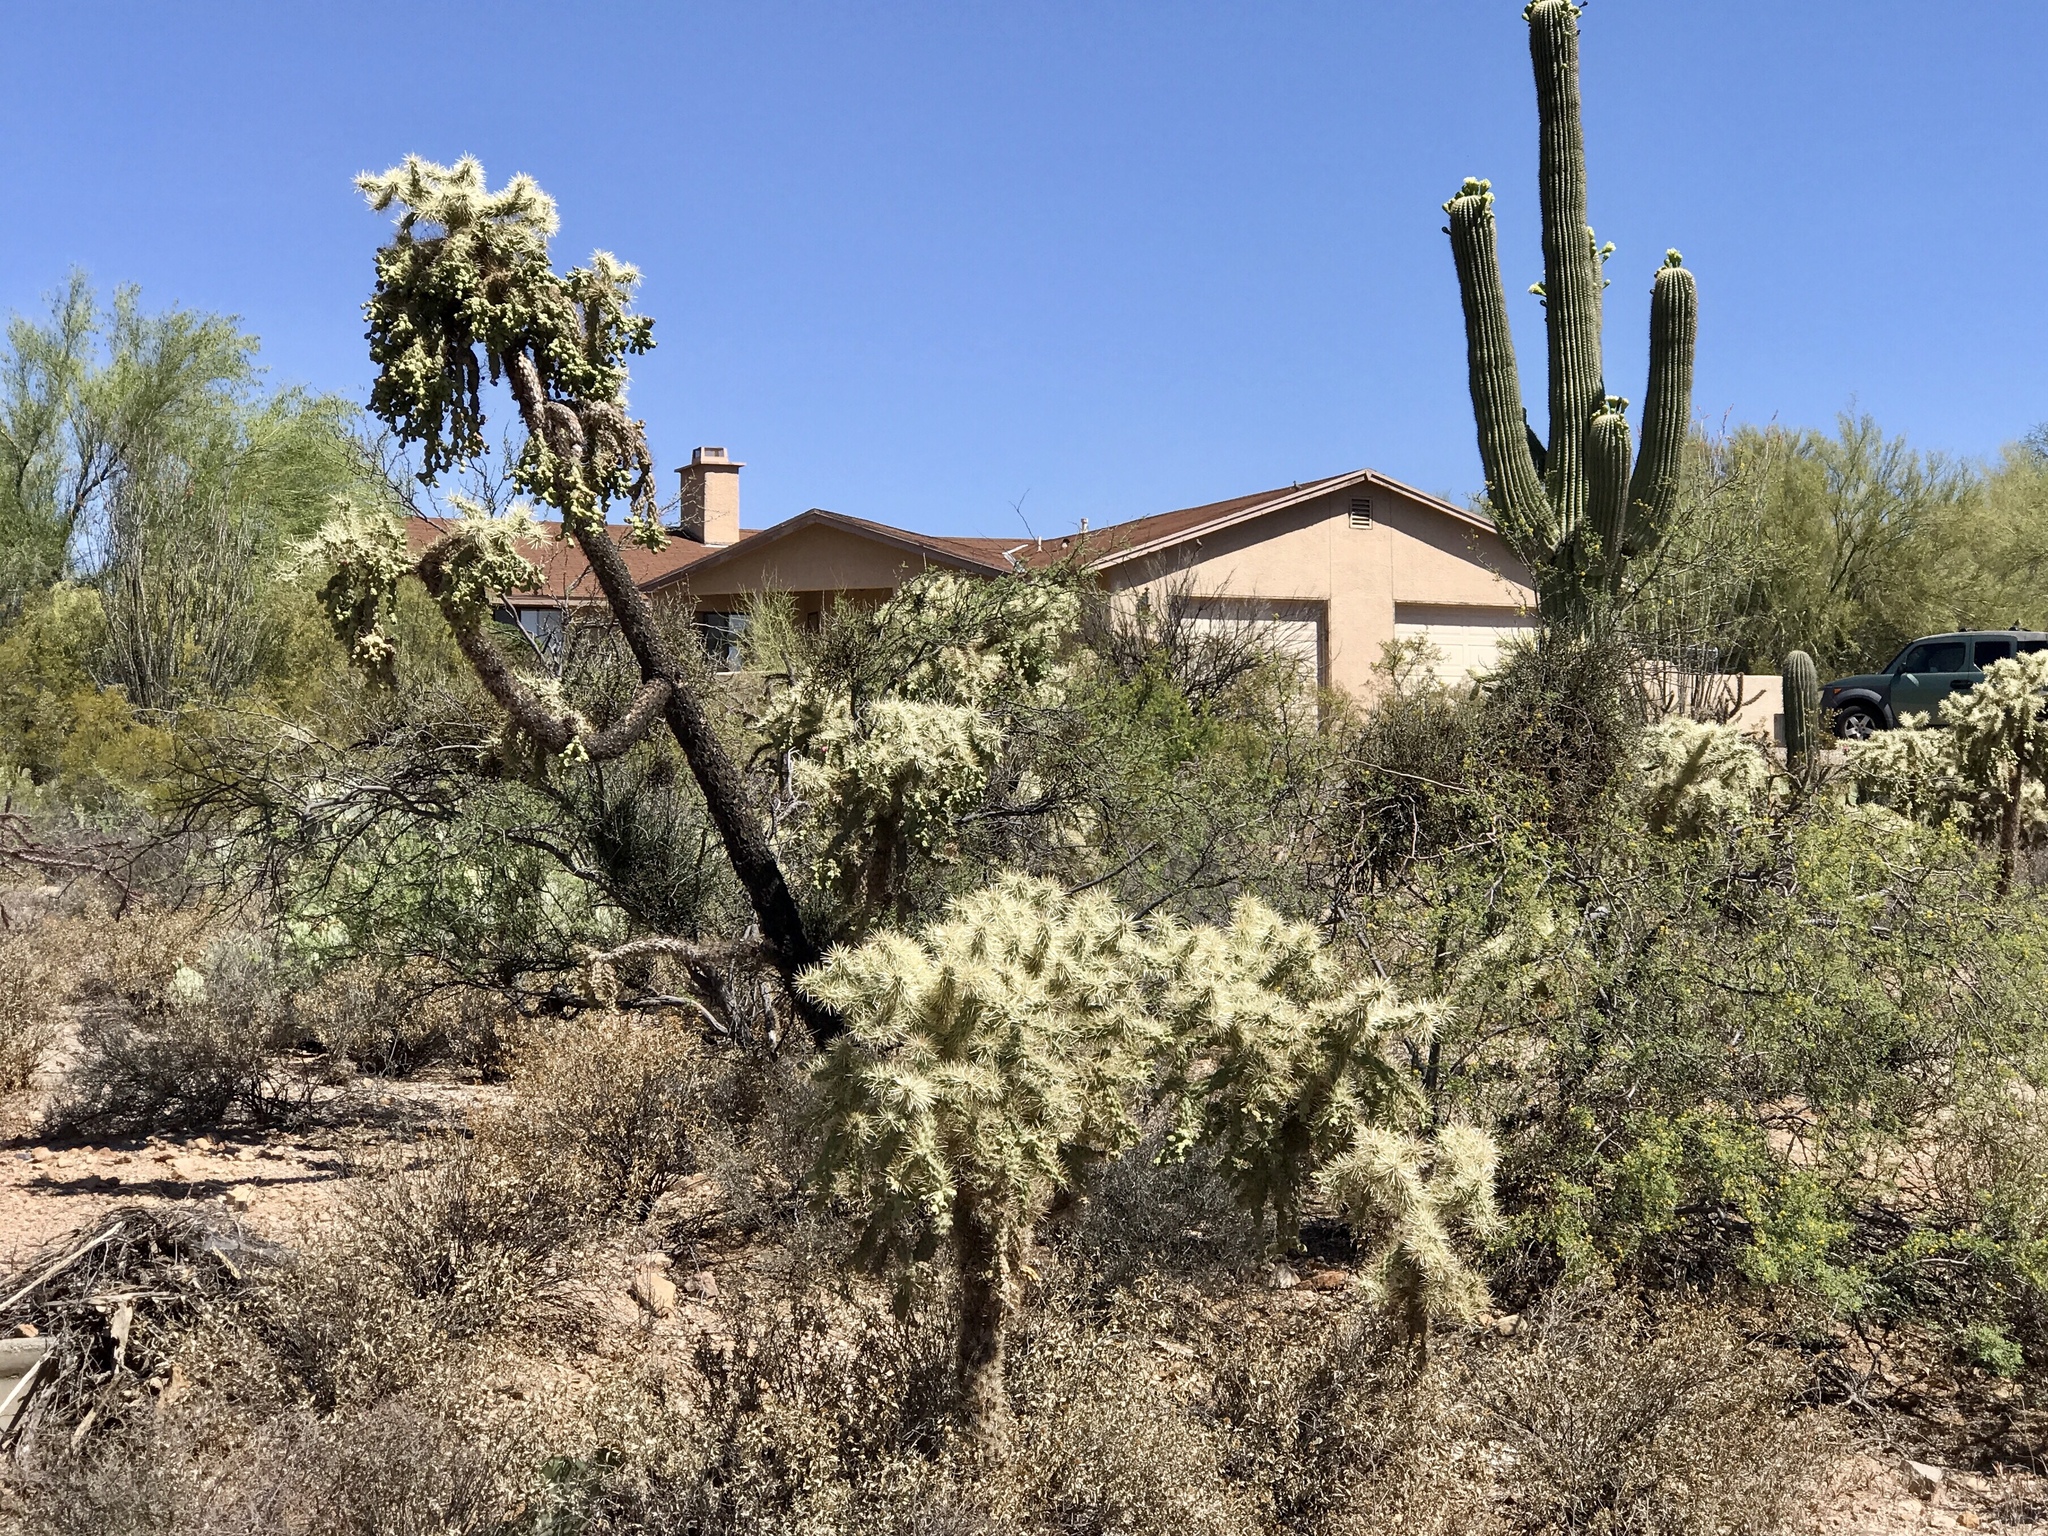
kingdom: Plantae
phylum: Tracheophyta
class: Magnoliopsida
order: Caryophyllales
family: Cactaceae
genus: Cylindropuntia
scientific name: Cylindropuntia fulgida
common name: Jumping cholla
